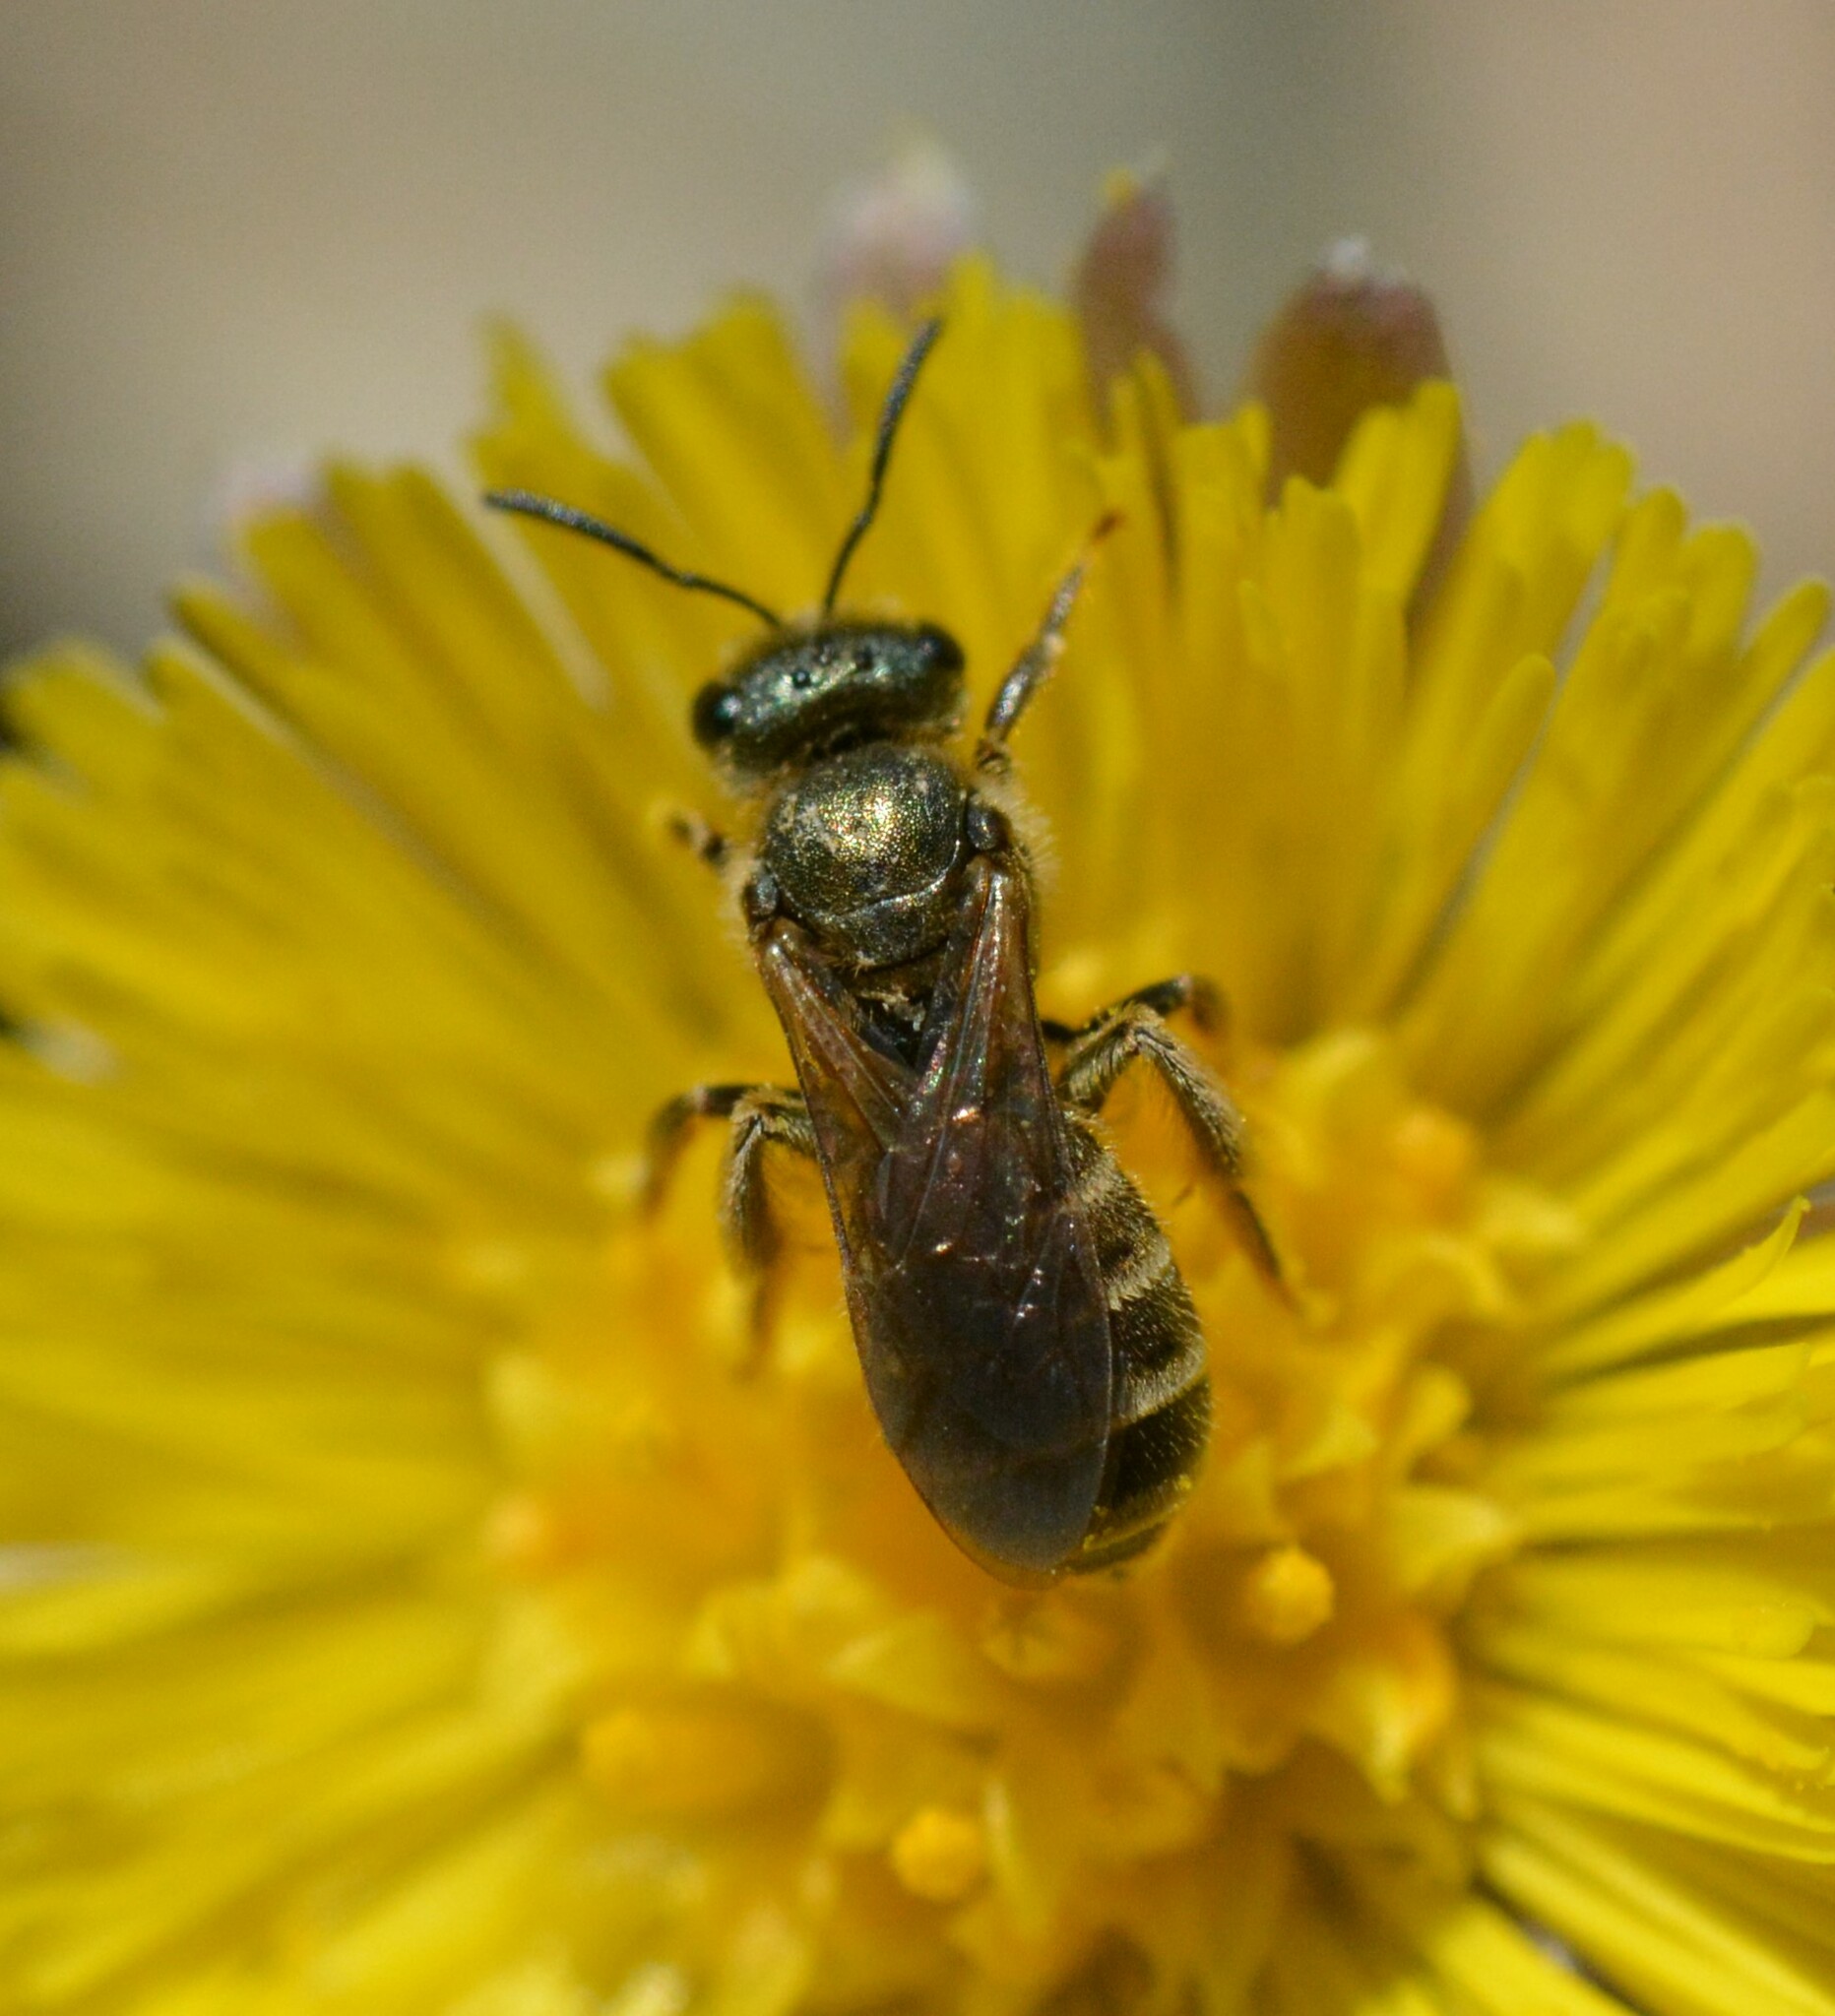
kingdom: Animalia
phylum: Arthropoda
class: Insecta
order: Hymenoptera
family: Halictidae
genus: Halictus
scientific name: Halictus confusus
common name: Southern bronze furrow bee
